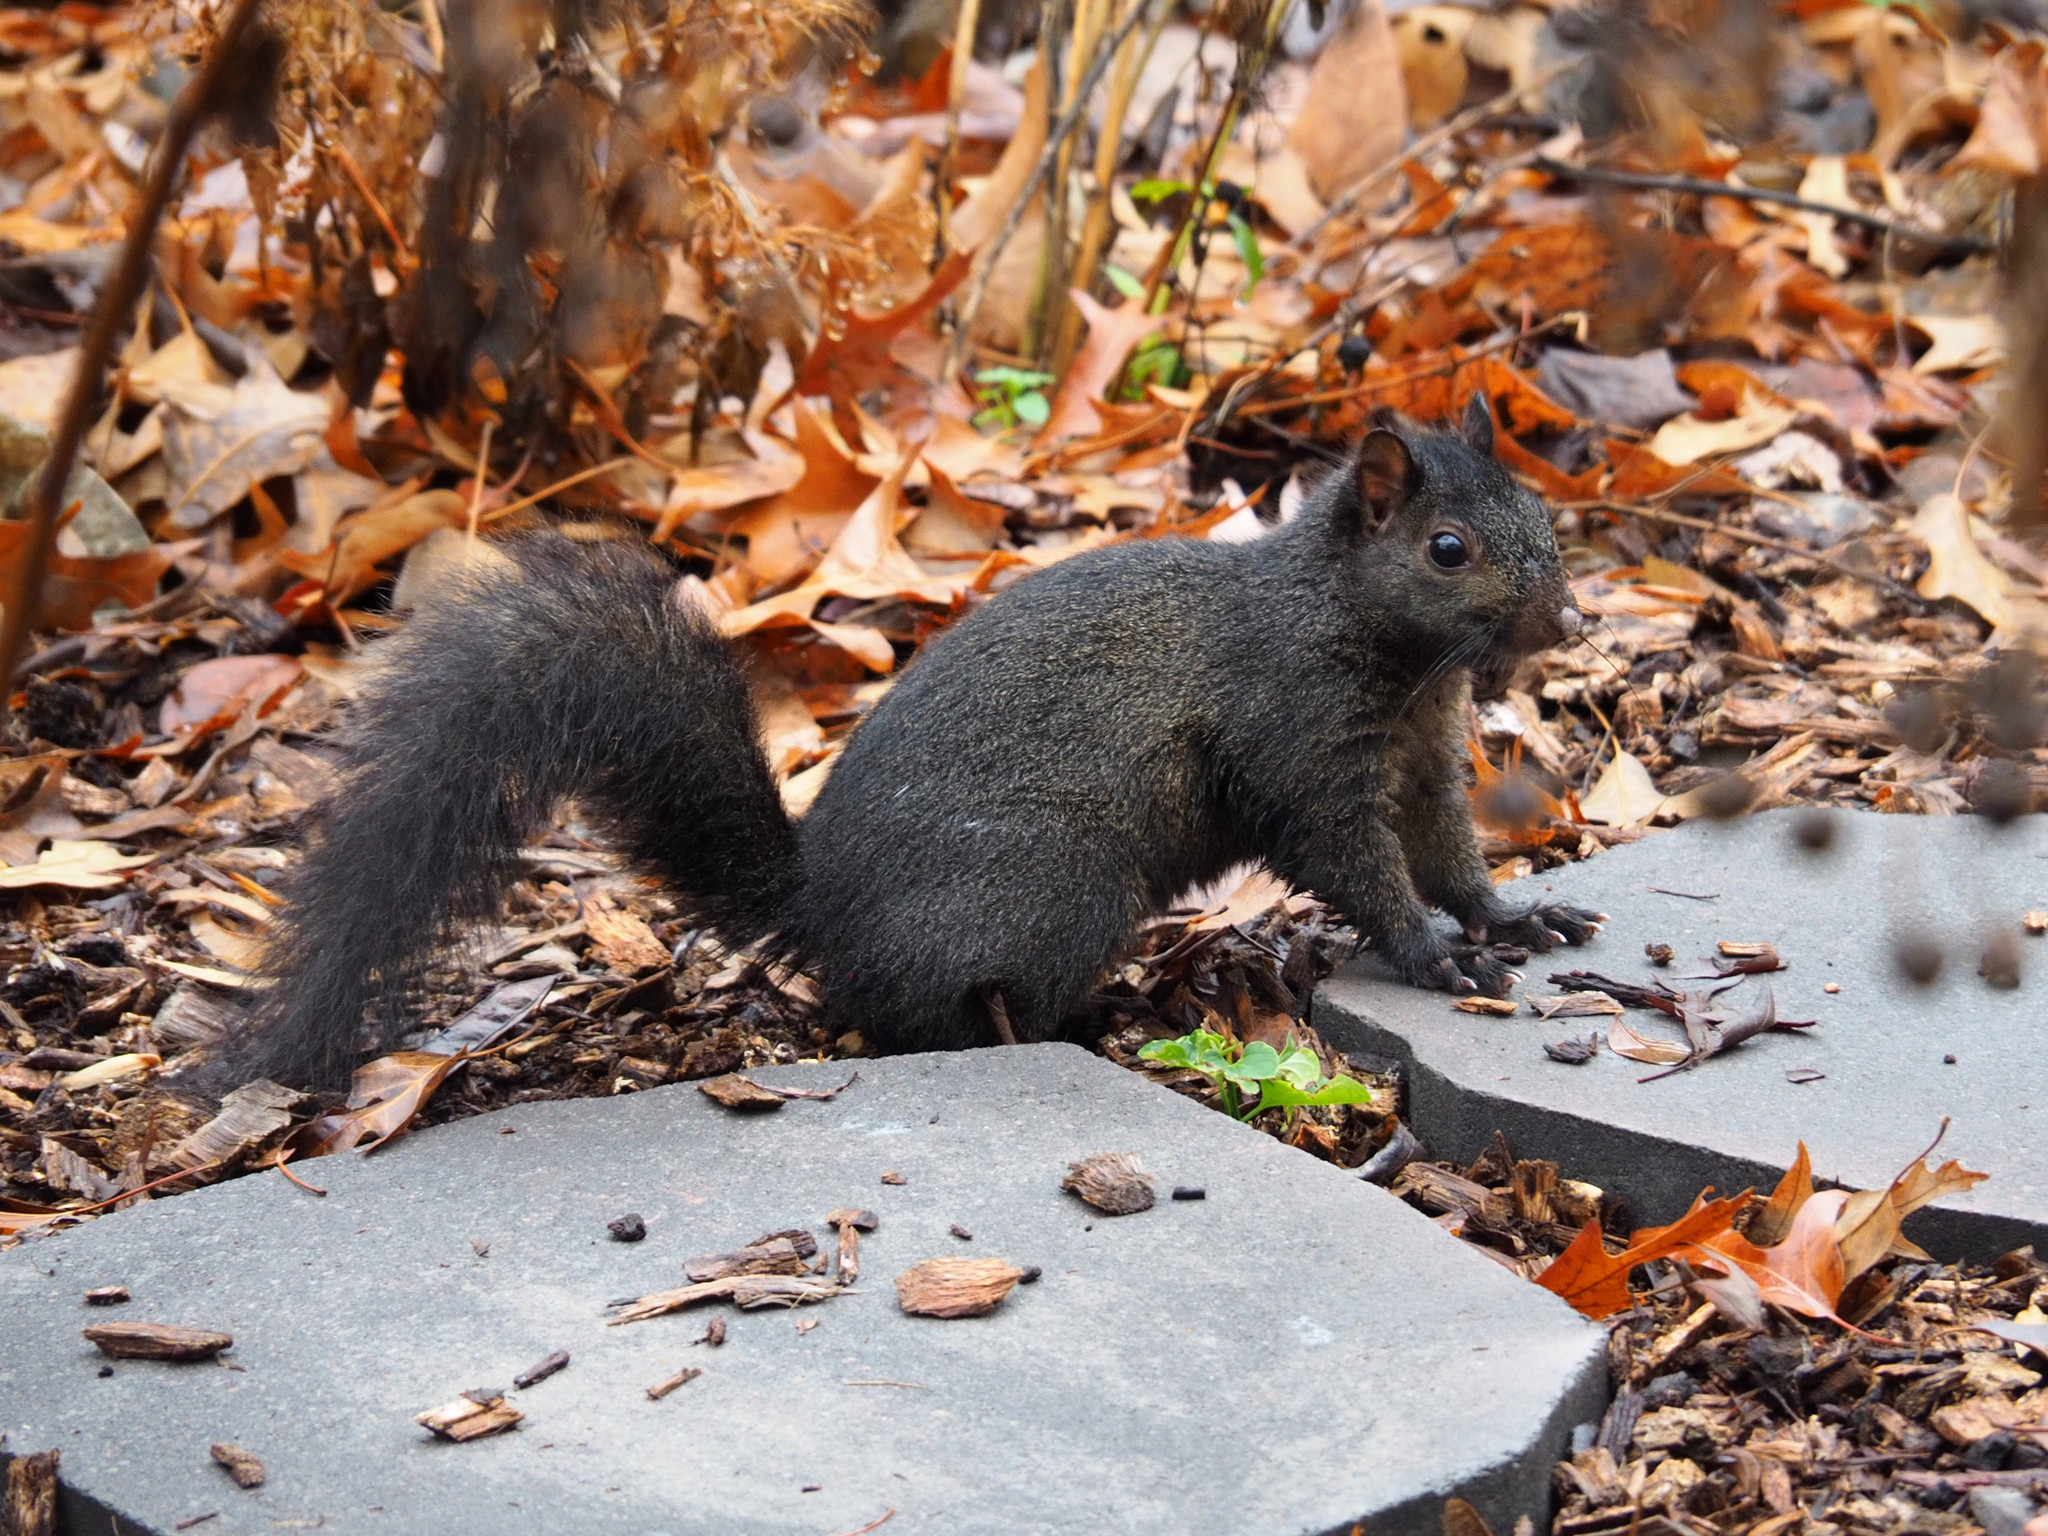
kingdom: Animalia
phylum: Chordata
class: Mammalia
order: Rodentia
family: Sciuridae
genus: Sciurus
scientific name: Sciurus carolinensis
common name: Eastern gray squirrel
